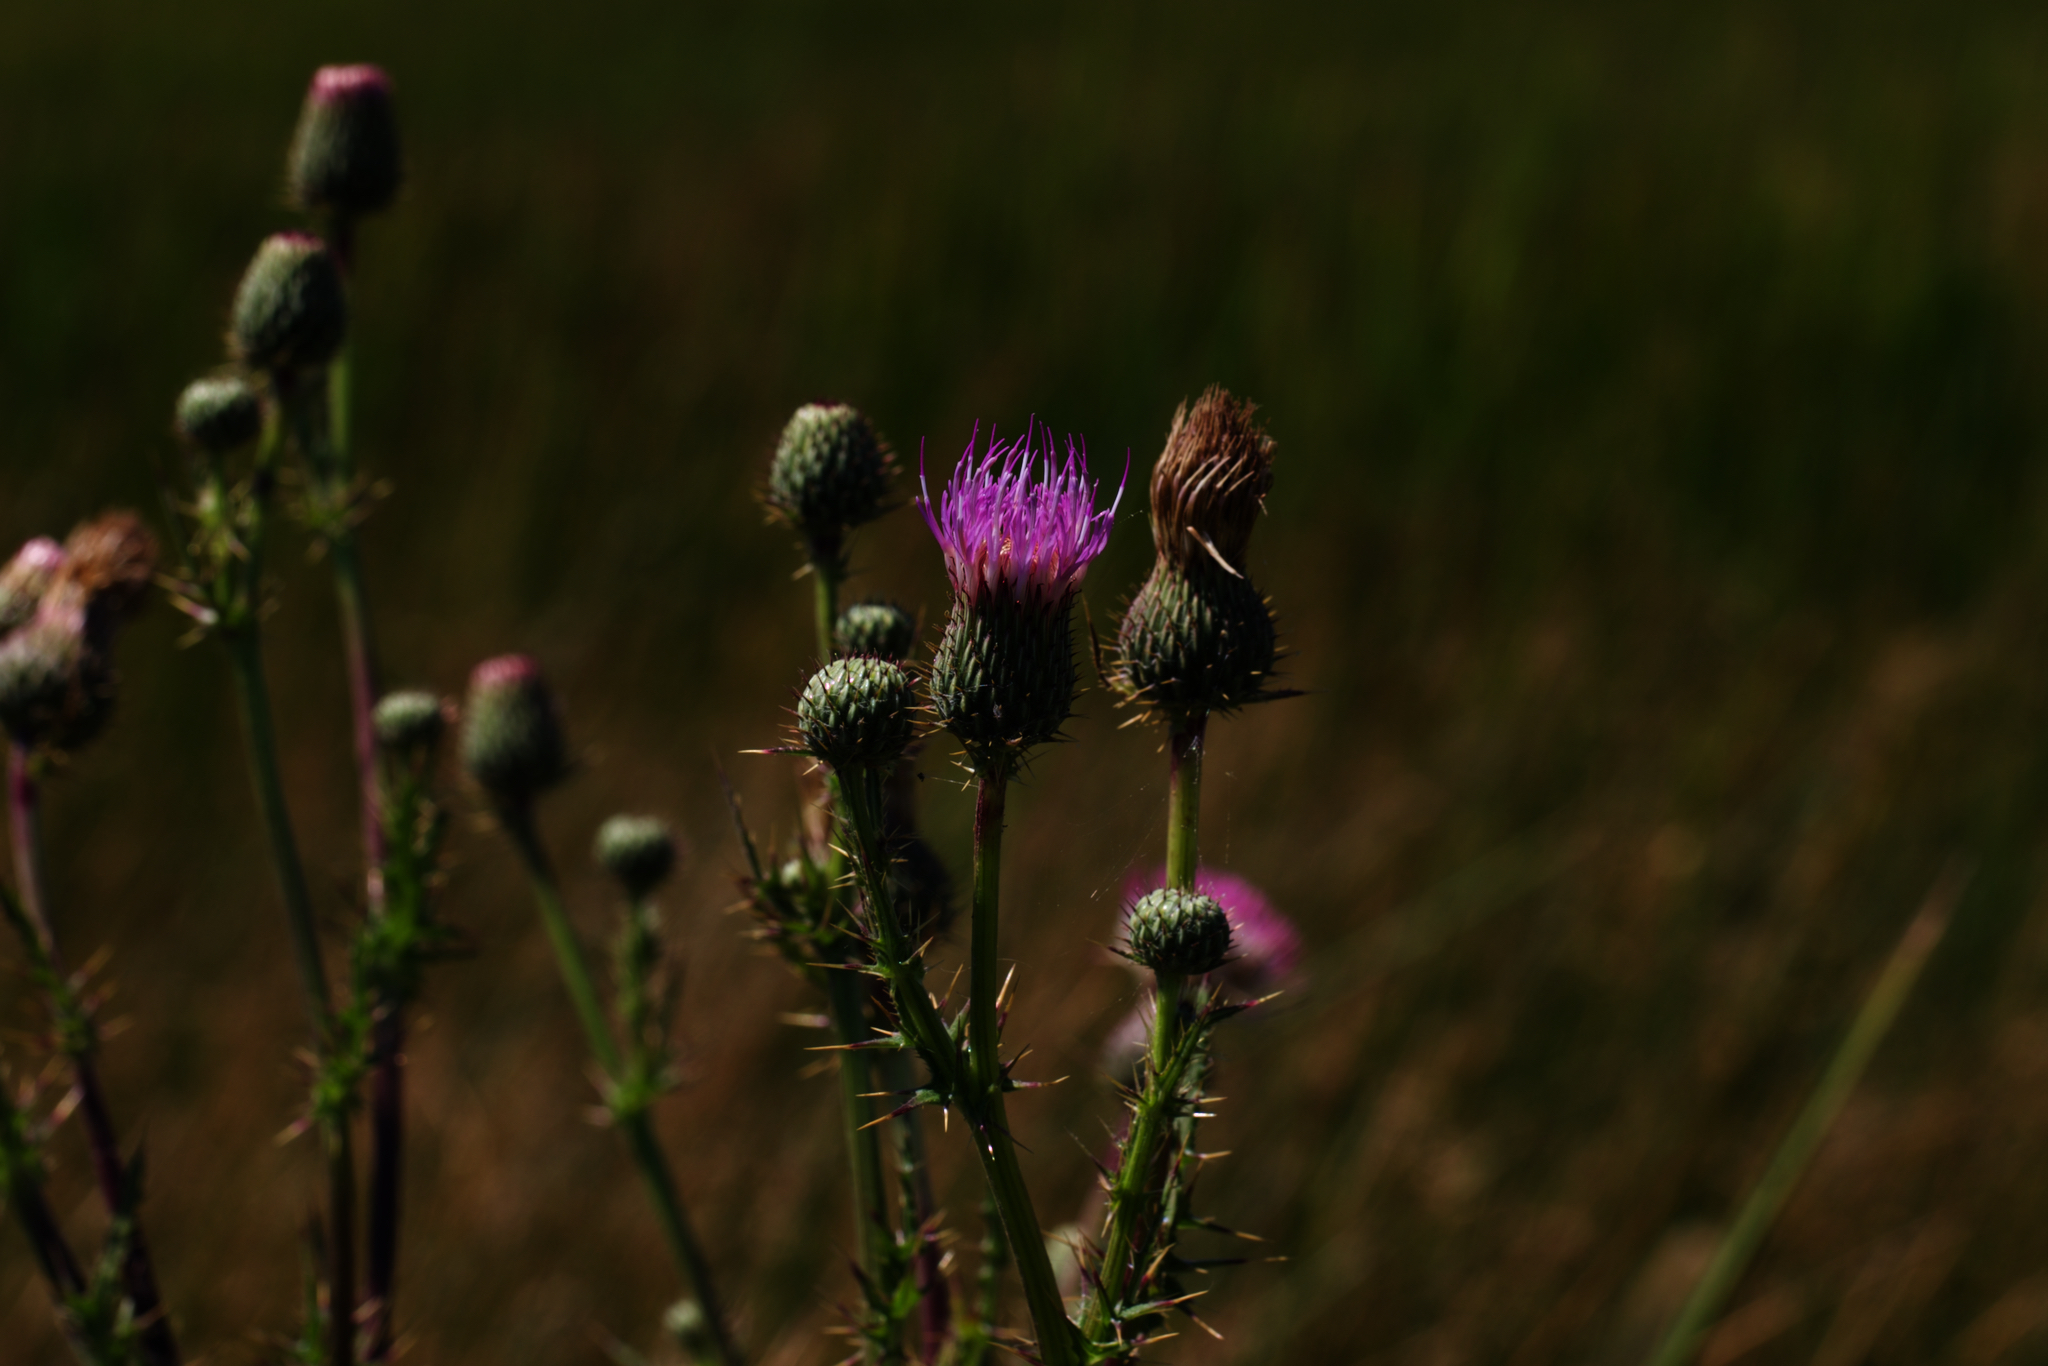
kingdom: Plantae
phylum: Tracheophyta
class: Magnoliopsida
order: Asterales
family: Asteraceae
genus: Cirsium
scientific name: Cirsium hydrophilum
